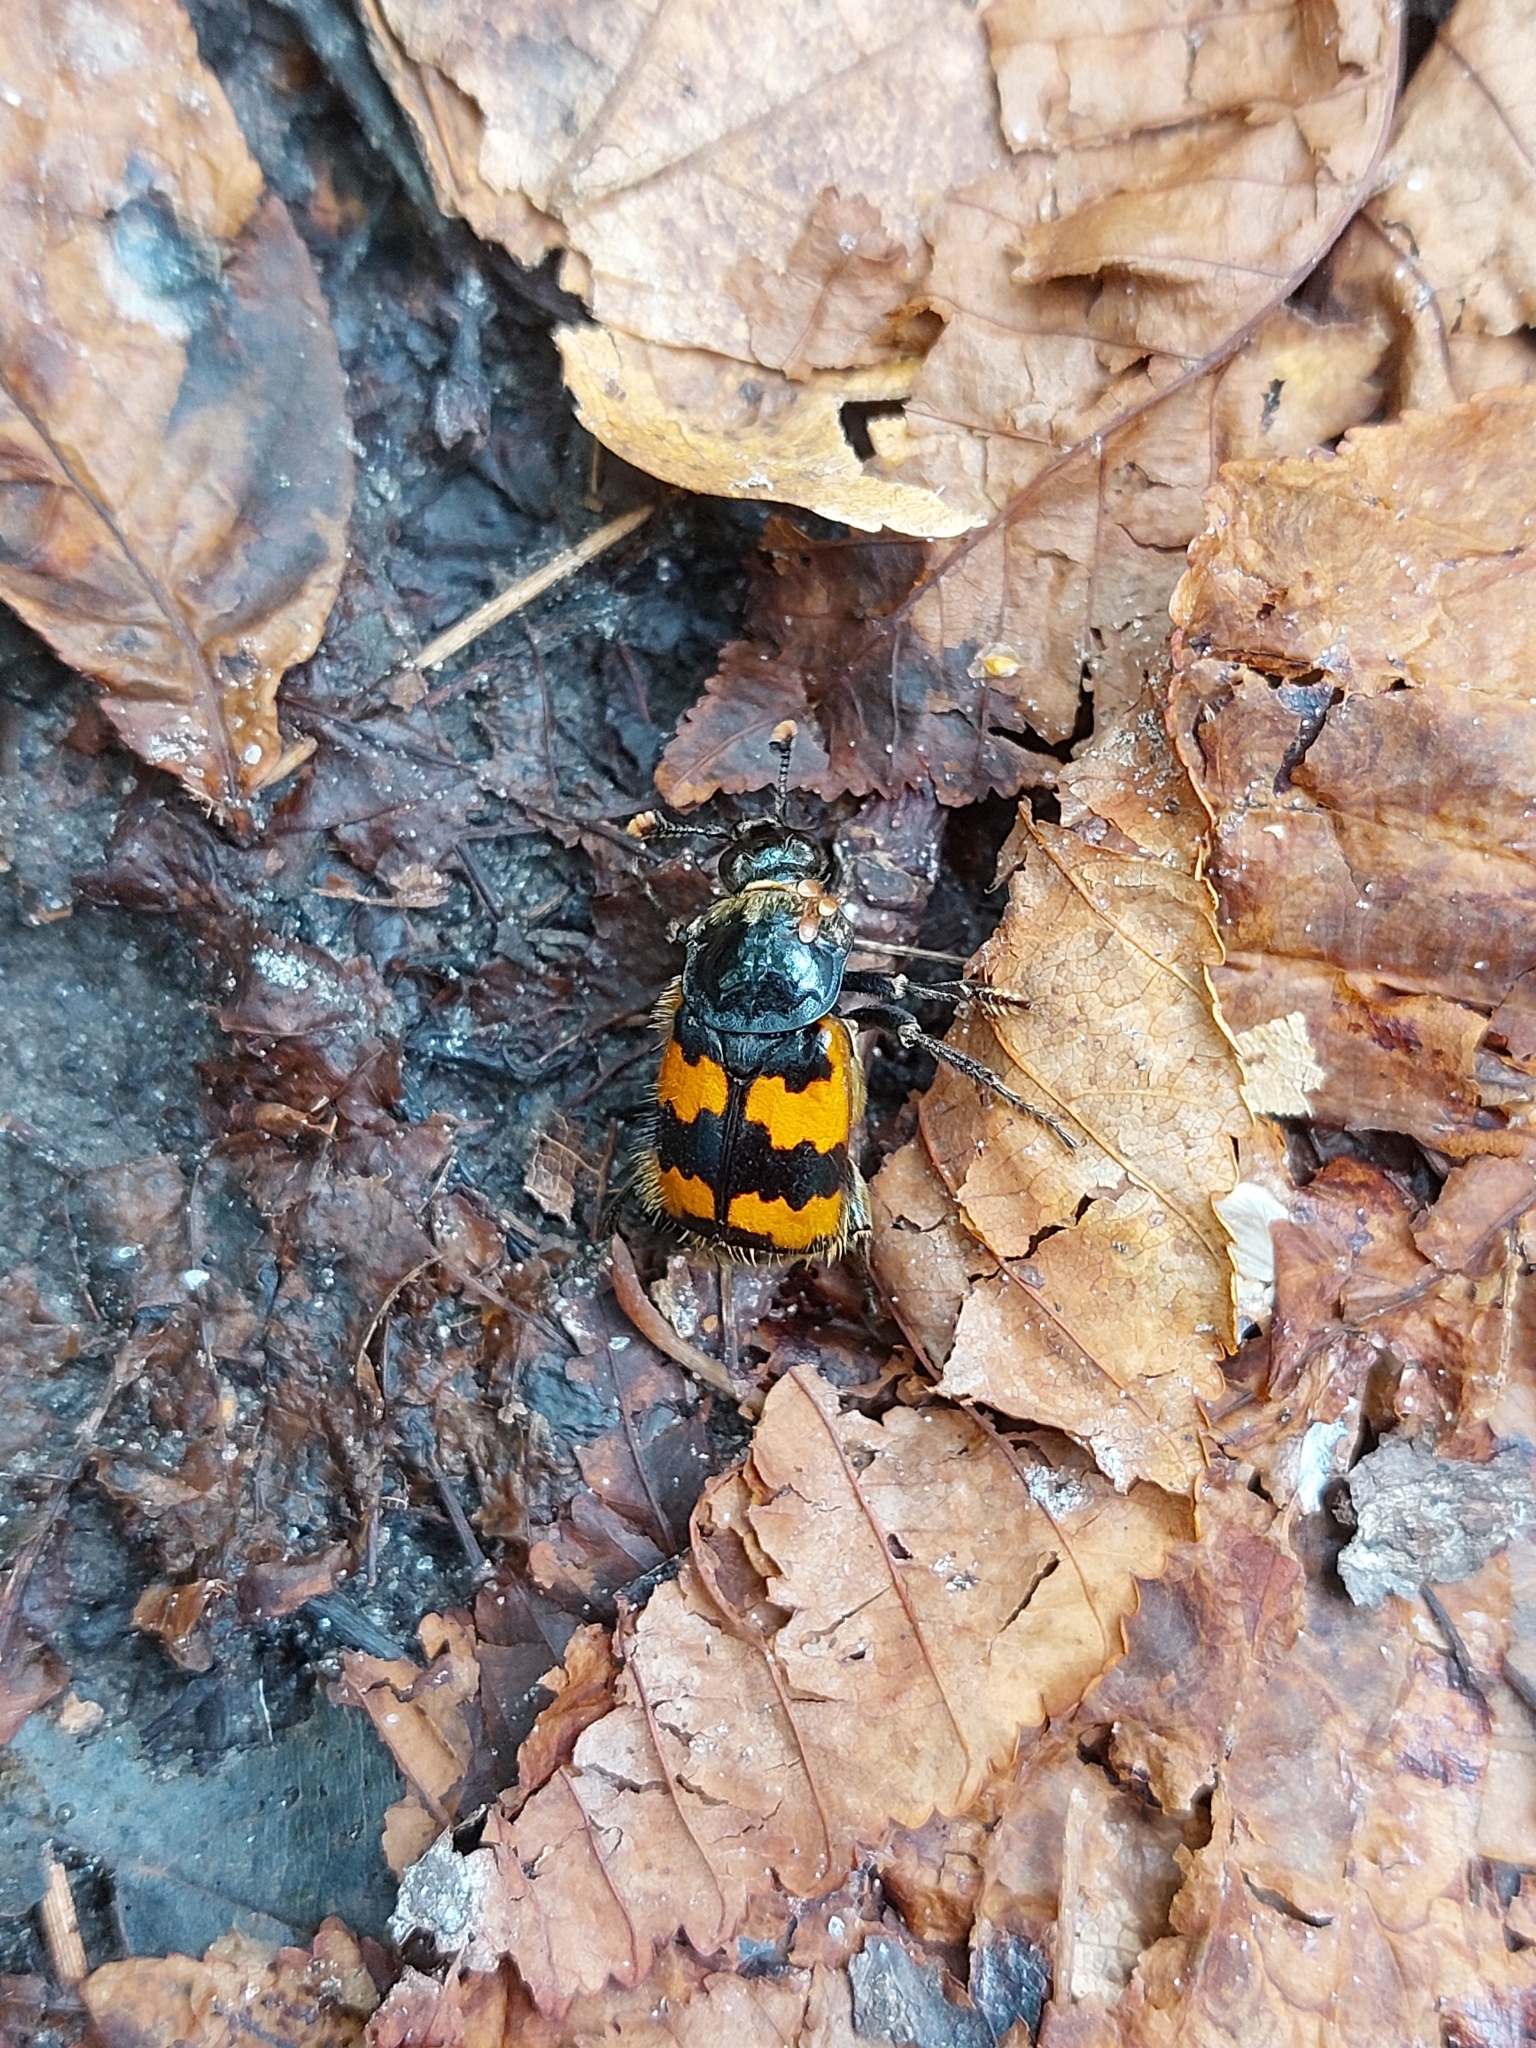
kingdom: Animalia
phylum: Arthropoda
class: Insecta
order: Coleoptera
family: Staphylinidae
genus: Nicrophorus
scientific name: Nicrophorus vespillo
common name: Common burying beetle
